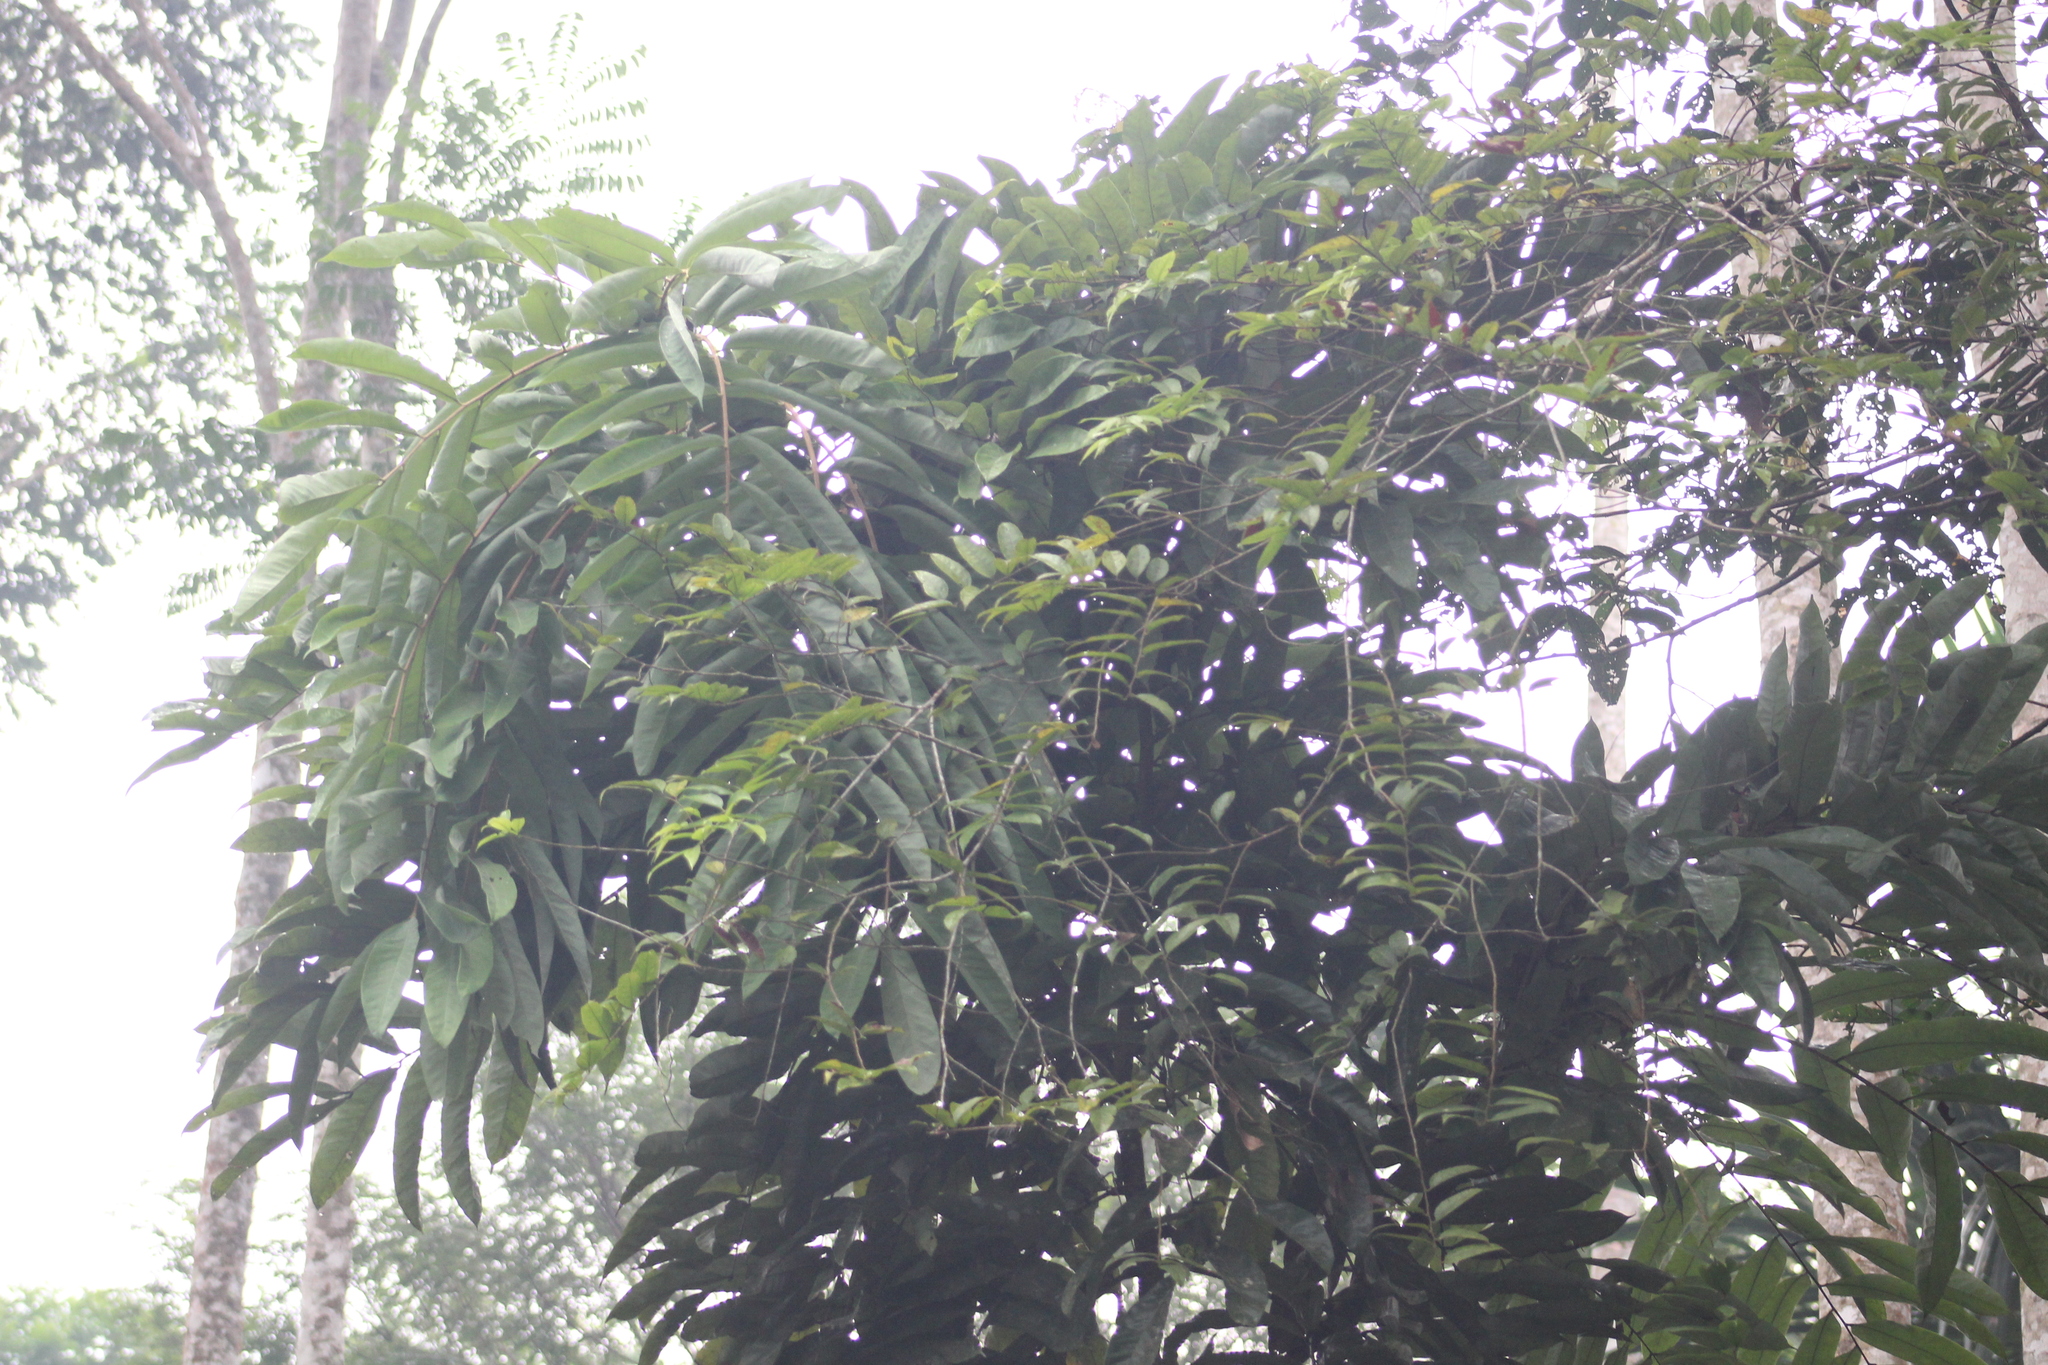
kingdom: Plantae
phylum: Tracheophyta
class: Magnoliopsida
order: Fabales
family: Fabaceae
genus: Brownea
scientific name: Brownea macrophylla
